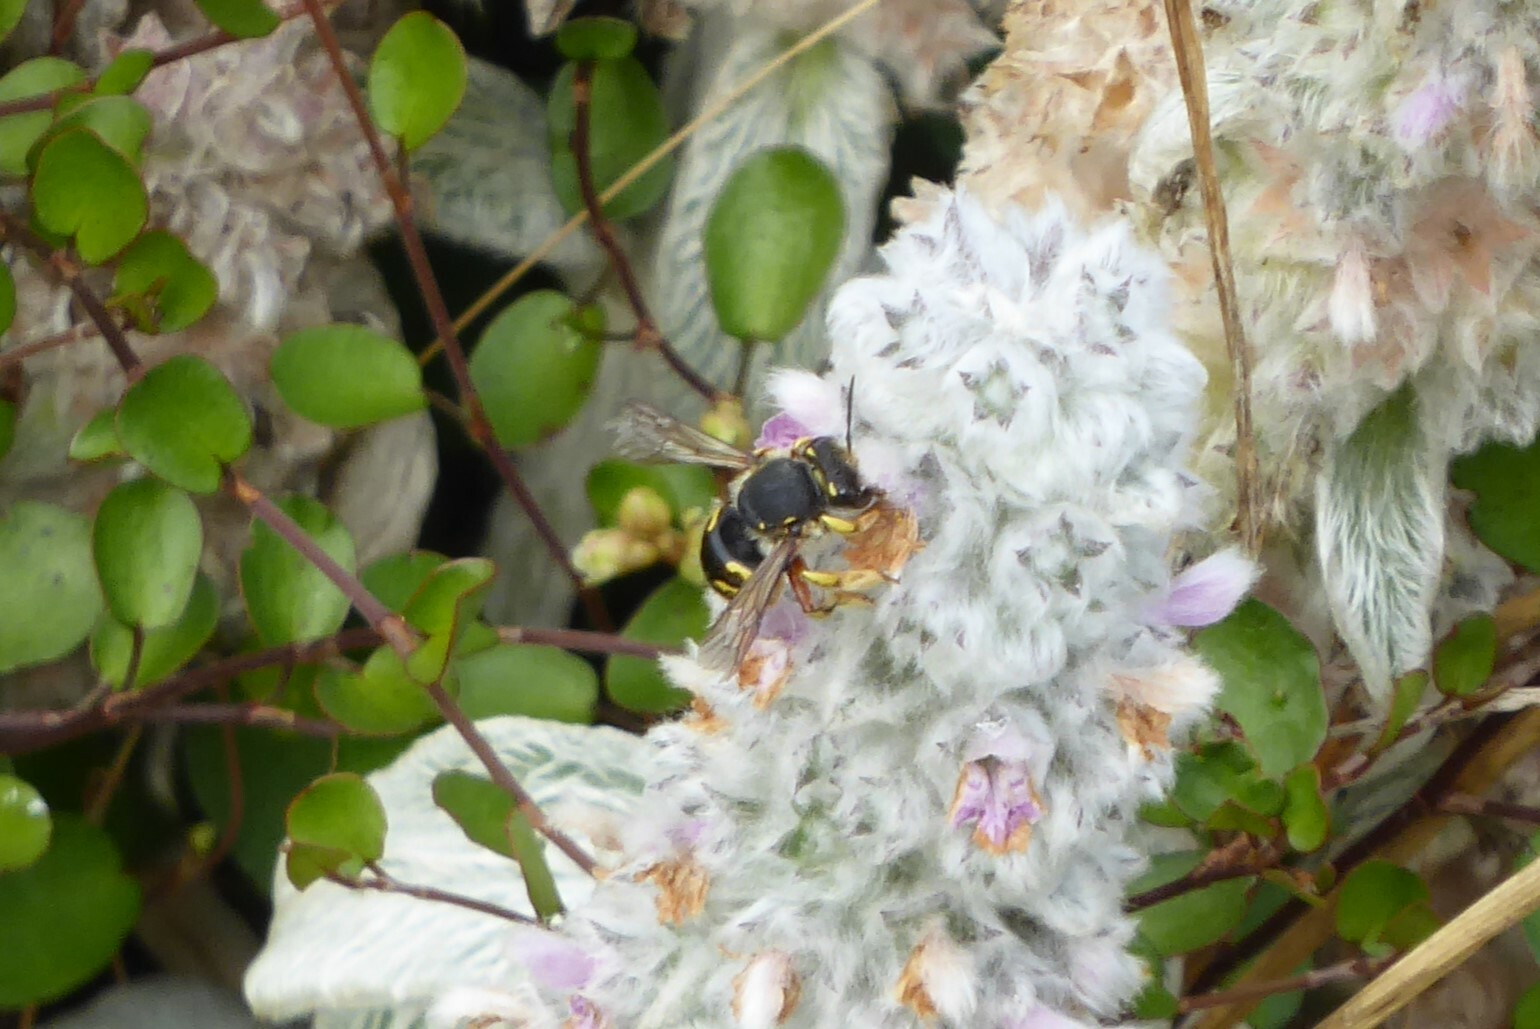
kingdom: Animalia
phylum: Arthropoda
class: Insecta
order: Hymenoptera
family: Megachilidae
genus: Anthidium
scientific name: Anthidium manicatum
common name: Wool carder bee
